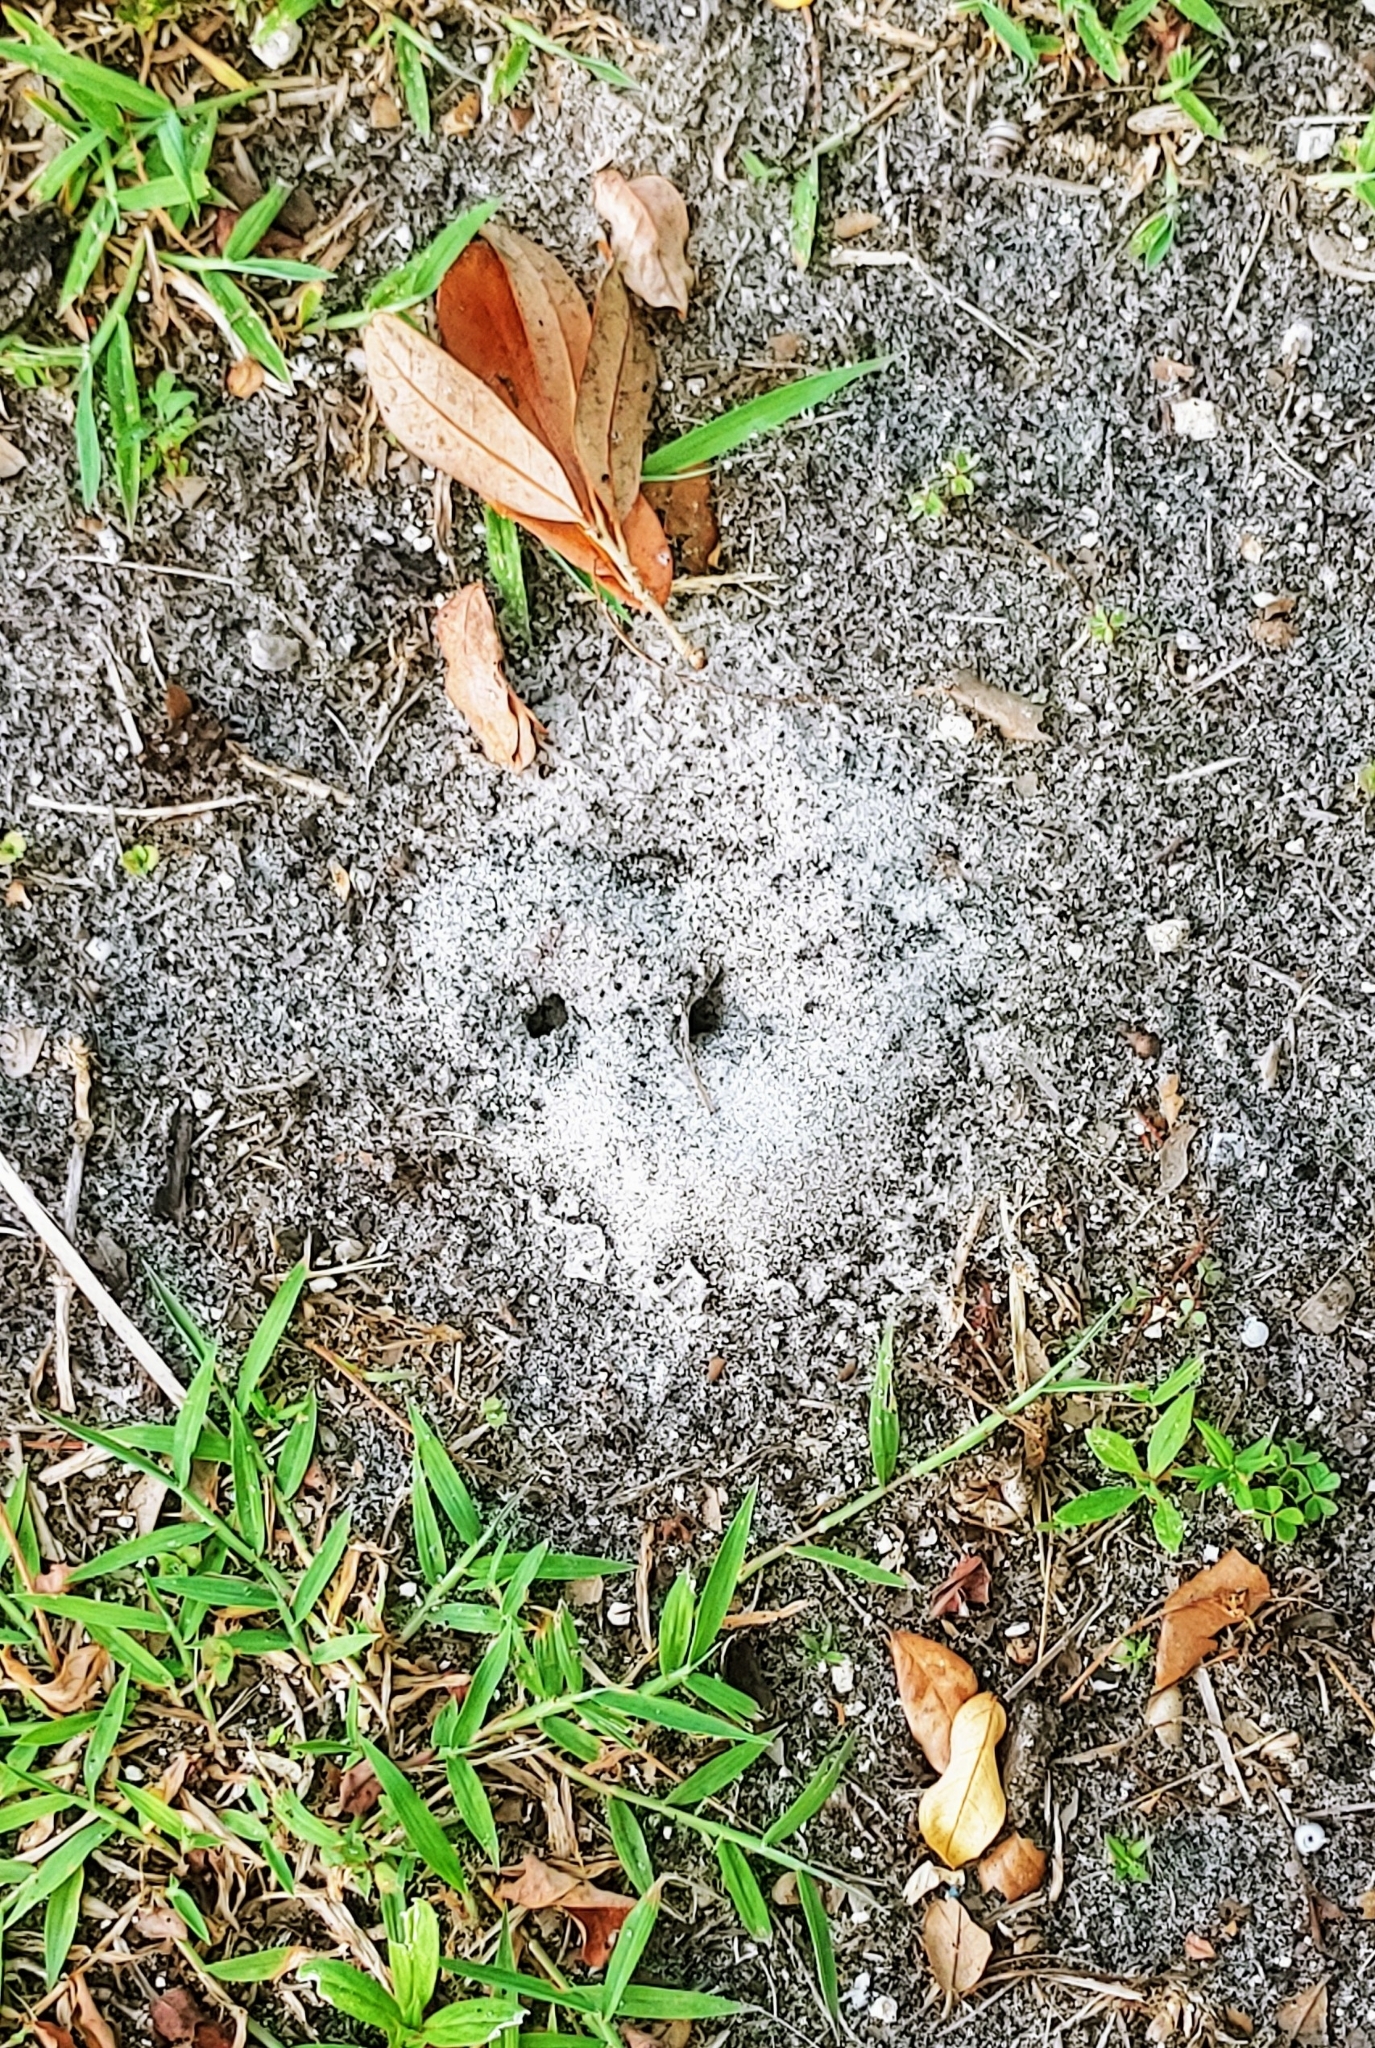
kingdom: Animalia
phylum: Arthropoda
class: Insecta
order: Hymenoptera
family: Formicidae
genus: Dorymyrmex
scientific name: Dorymyrmex bureni
